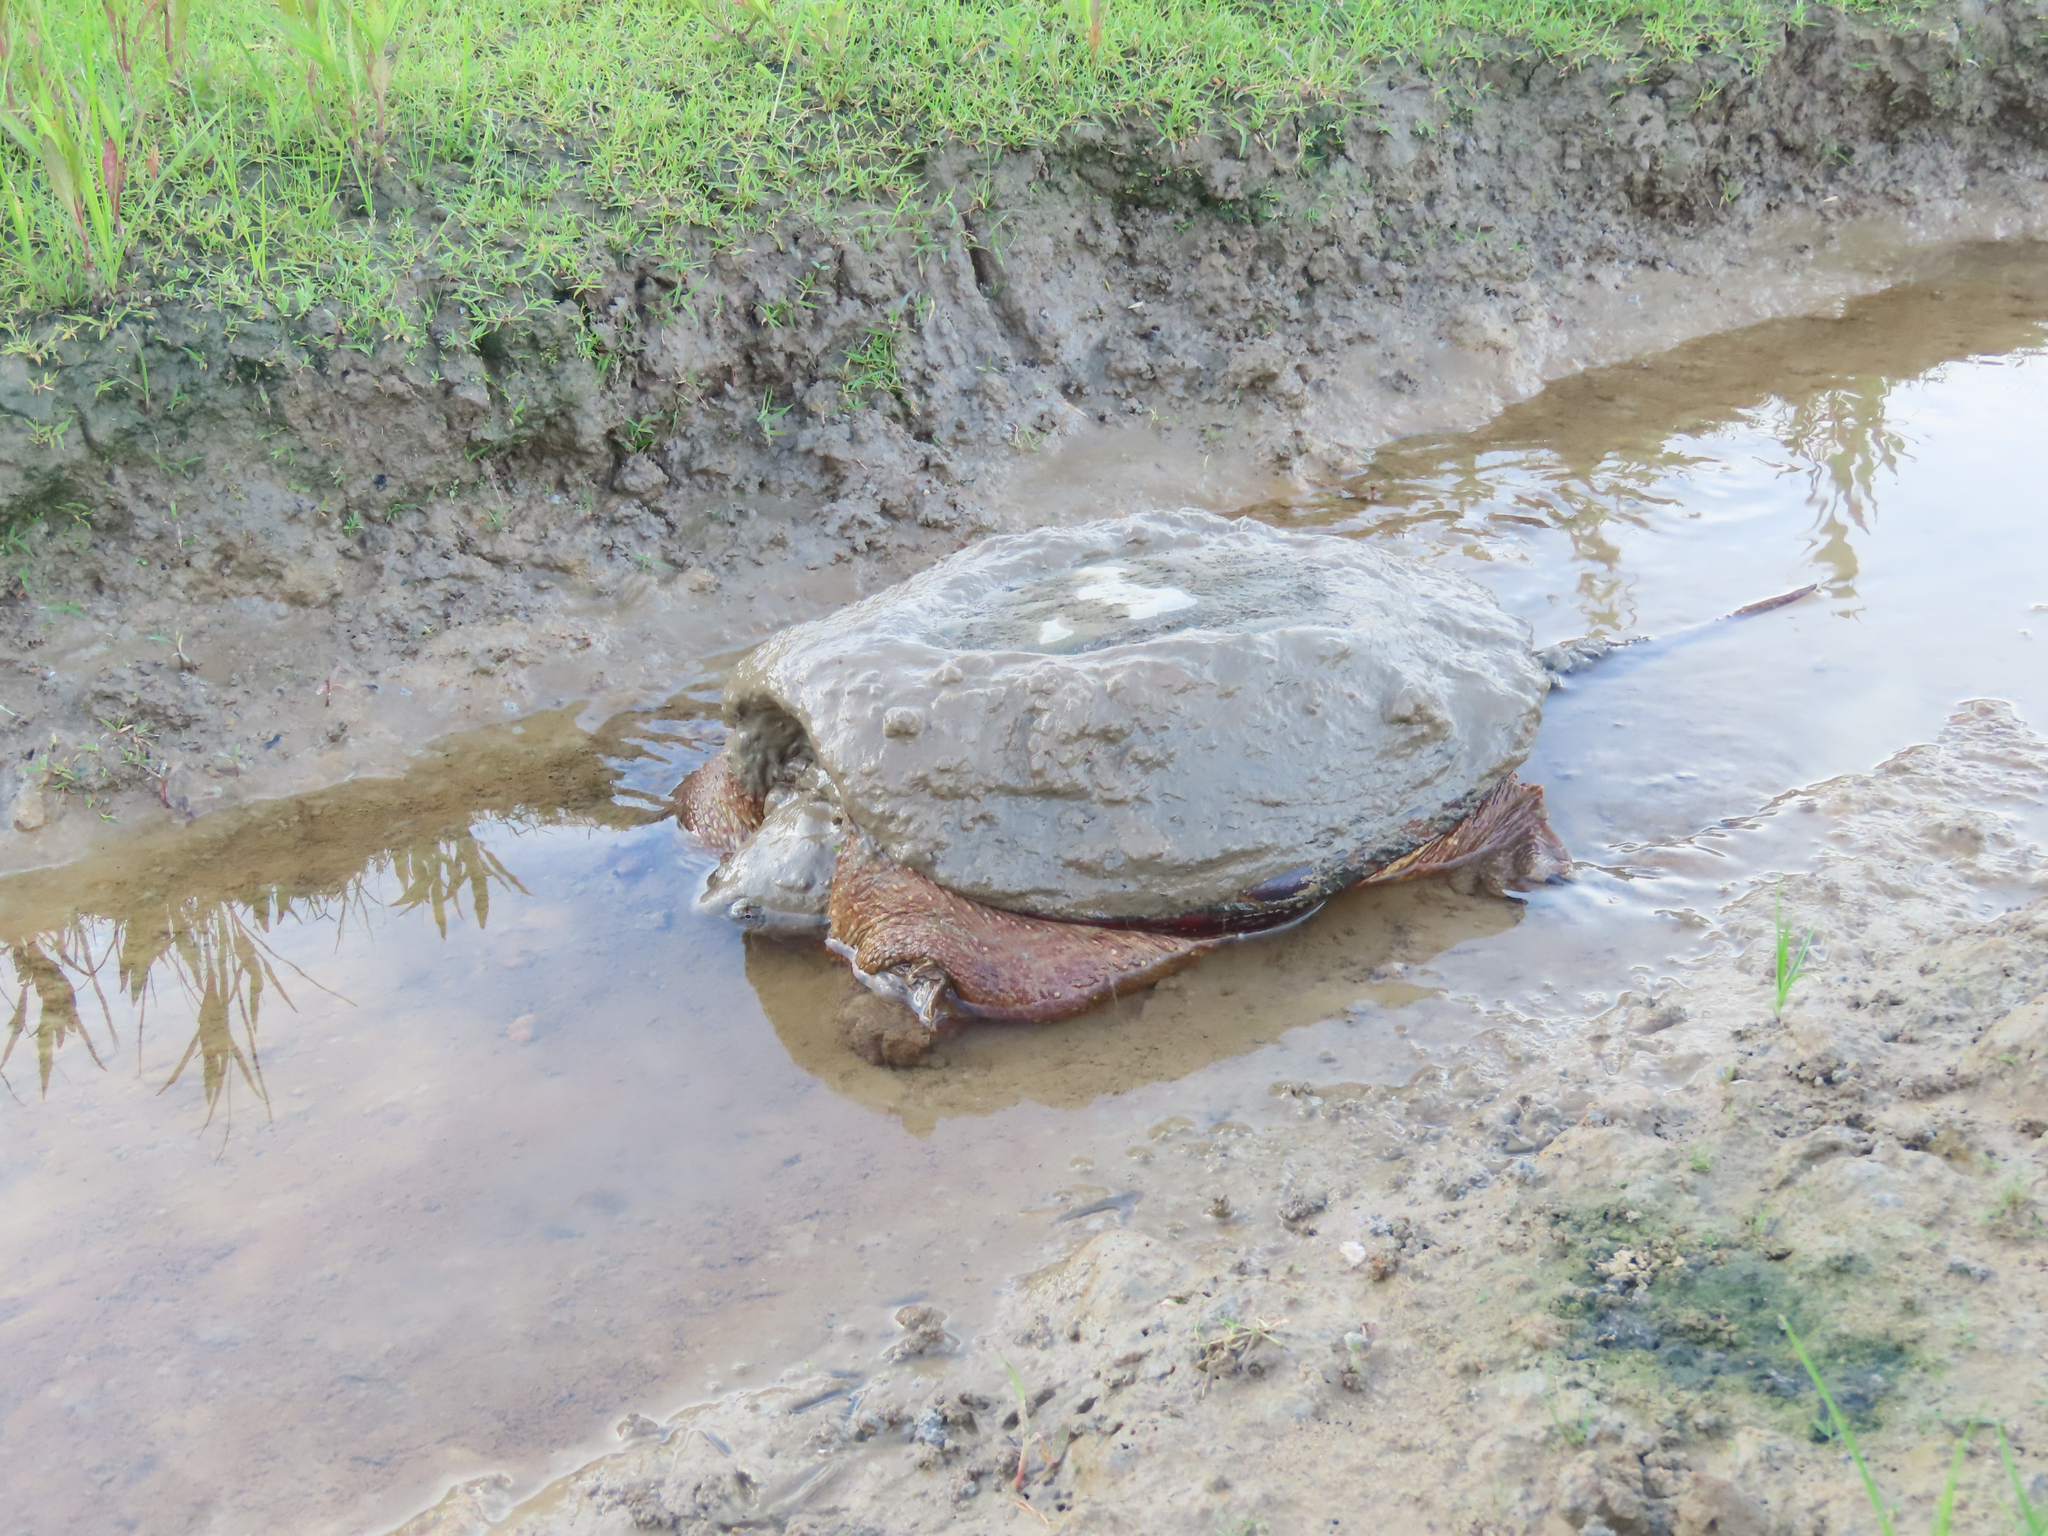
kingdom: Animalia
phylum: Chordata
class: Testudines
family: Chelydridae
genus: Chelydra
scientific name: Chelydra serpentina
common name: Common snapping turtle
